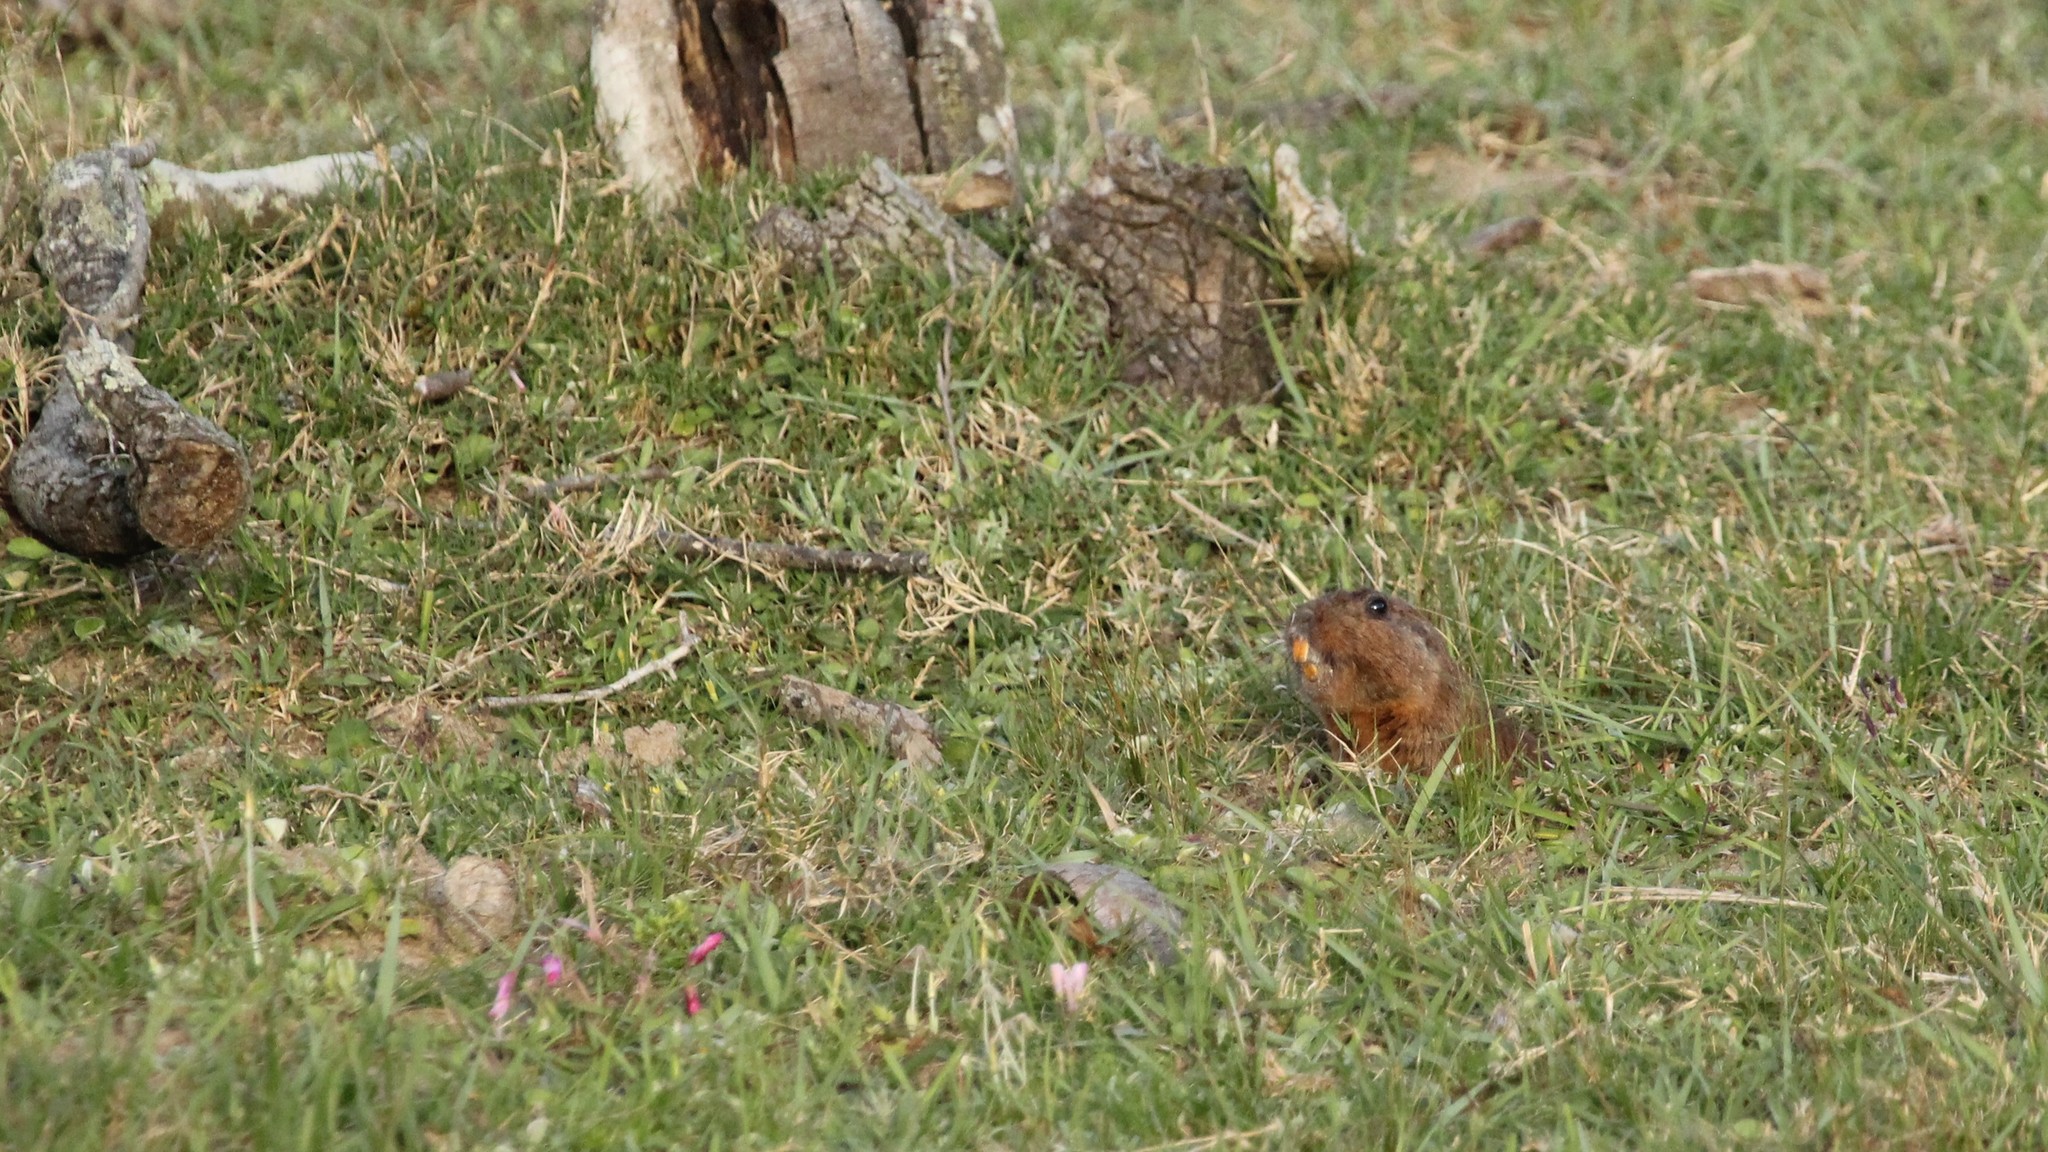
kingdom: Animalia
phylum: Chordata
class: Mammalia
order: Rodentia
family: Ctenomyidae
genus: Ctenomys
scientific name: Ctenomys pearsoni
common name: Pearson's tuco-tuco
